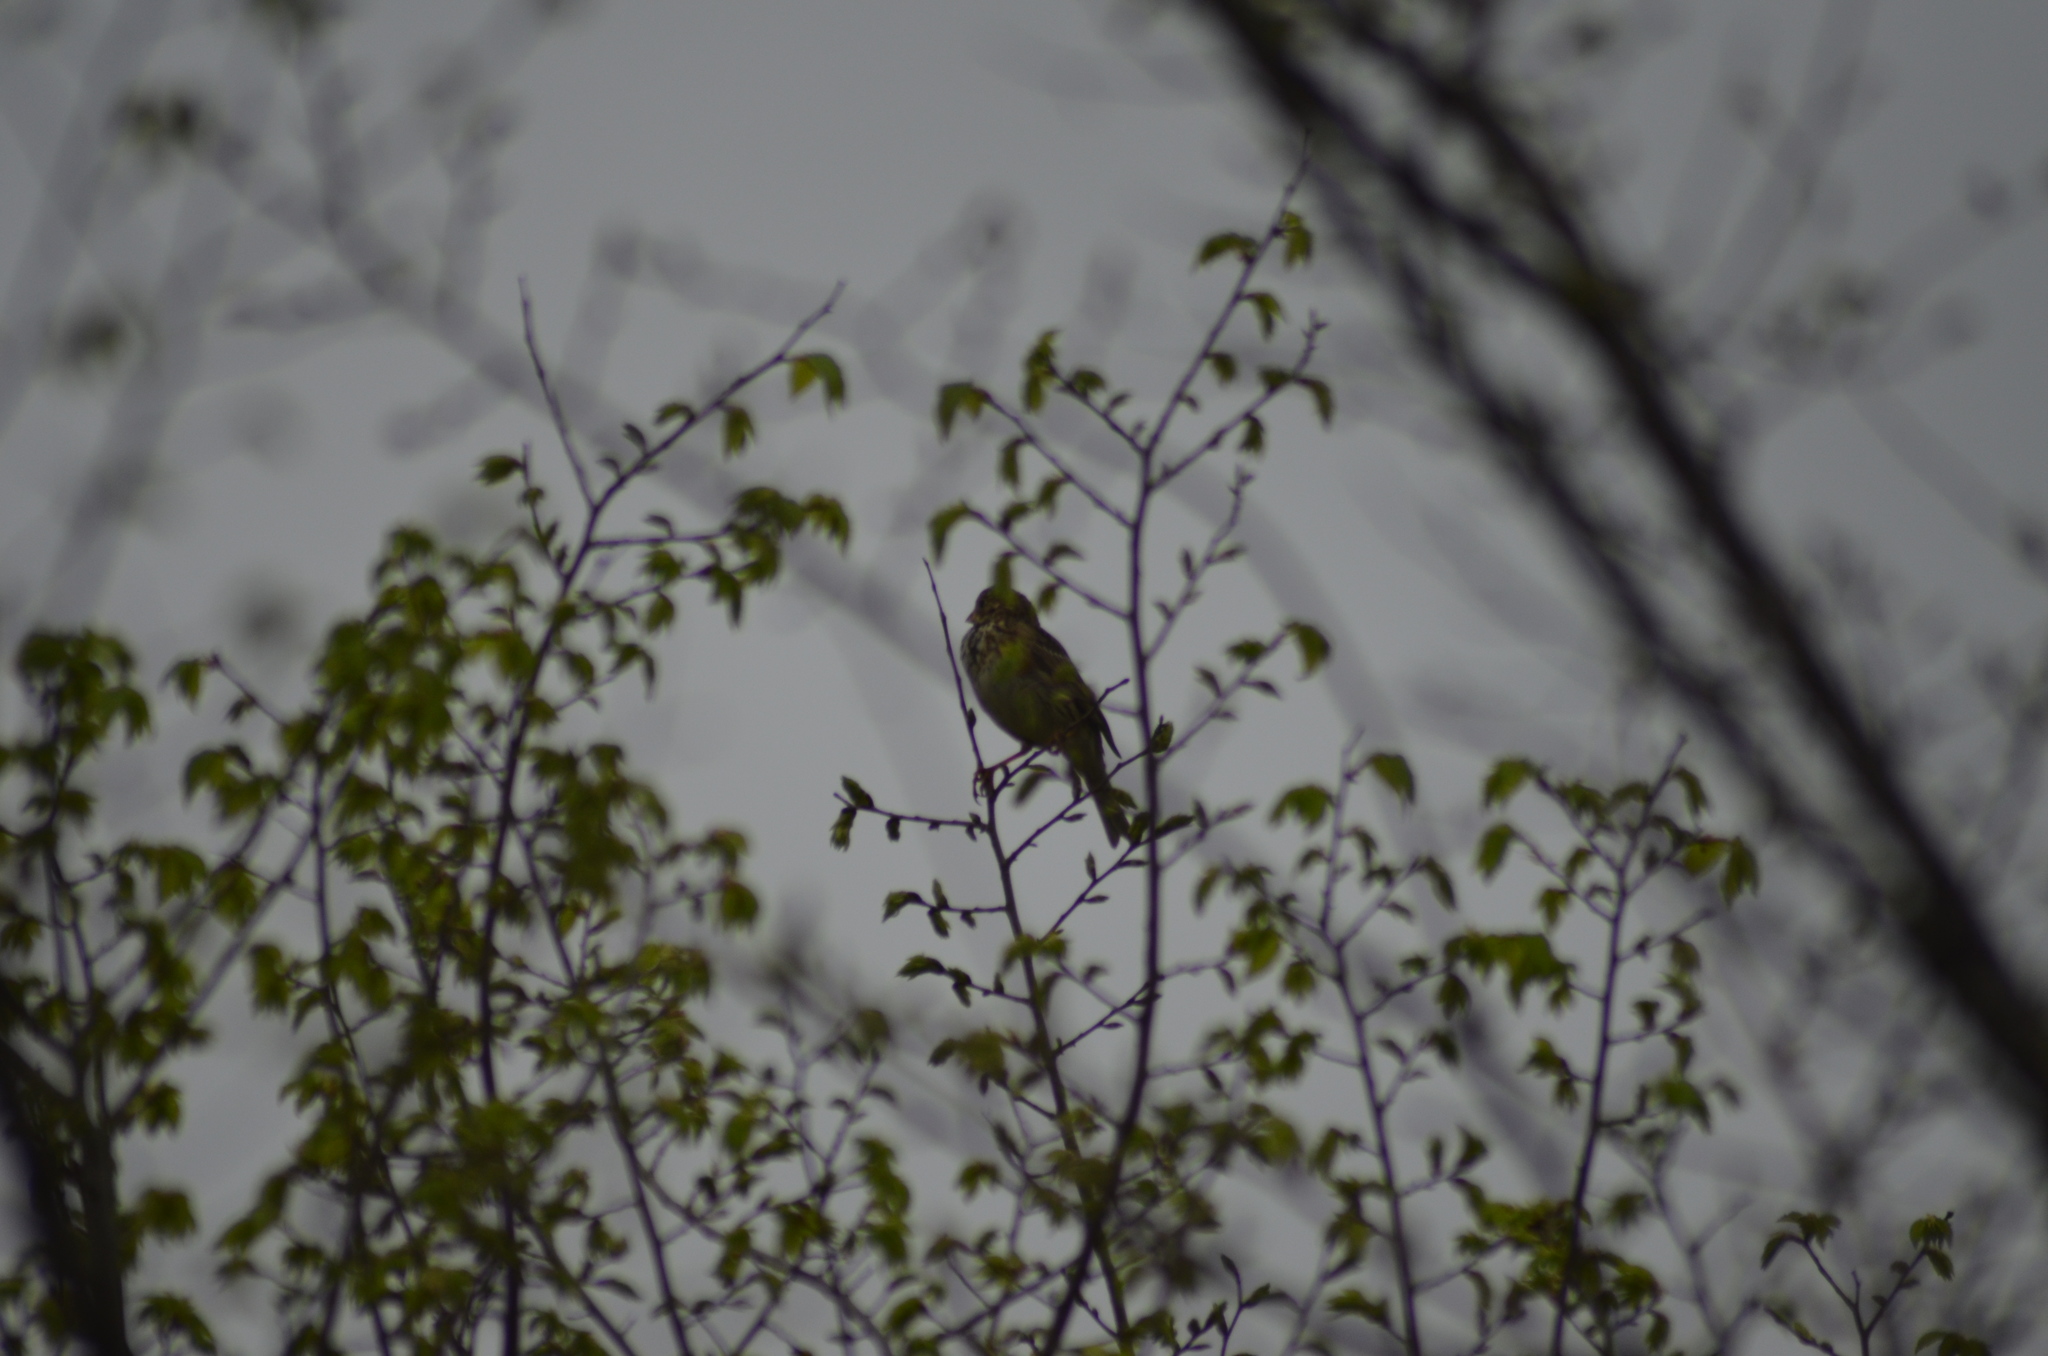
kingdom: Animalia
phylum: Chordata
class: Aves
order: Passeriformes
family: Emberizidae
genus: Emberiza
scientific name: Emberiza calandra
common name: Corn bunting
